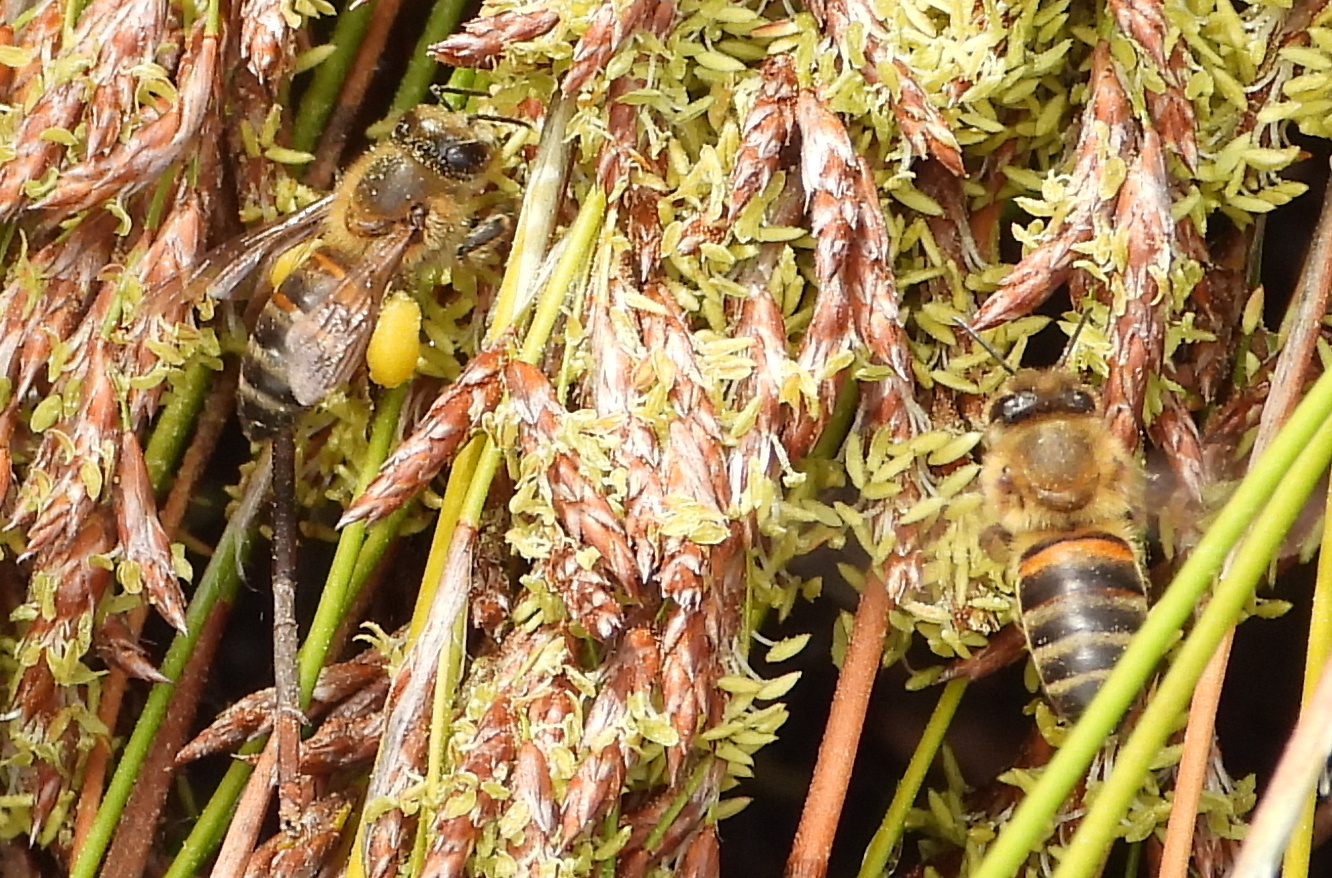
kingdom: Animalia
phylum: Arthropoda
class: Insecta
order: Hymenoptera
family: Apidae
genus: Apis
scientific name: Apis mellifera
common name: Honey bee
